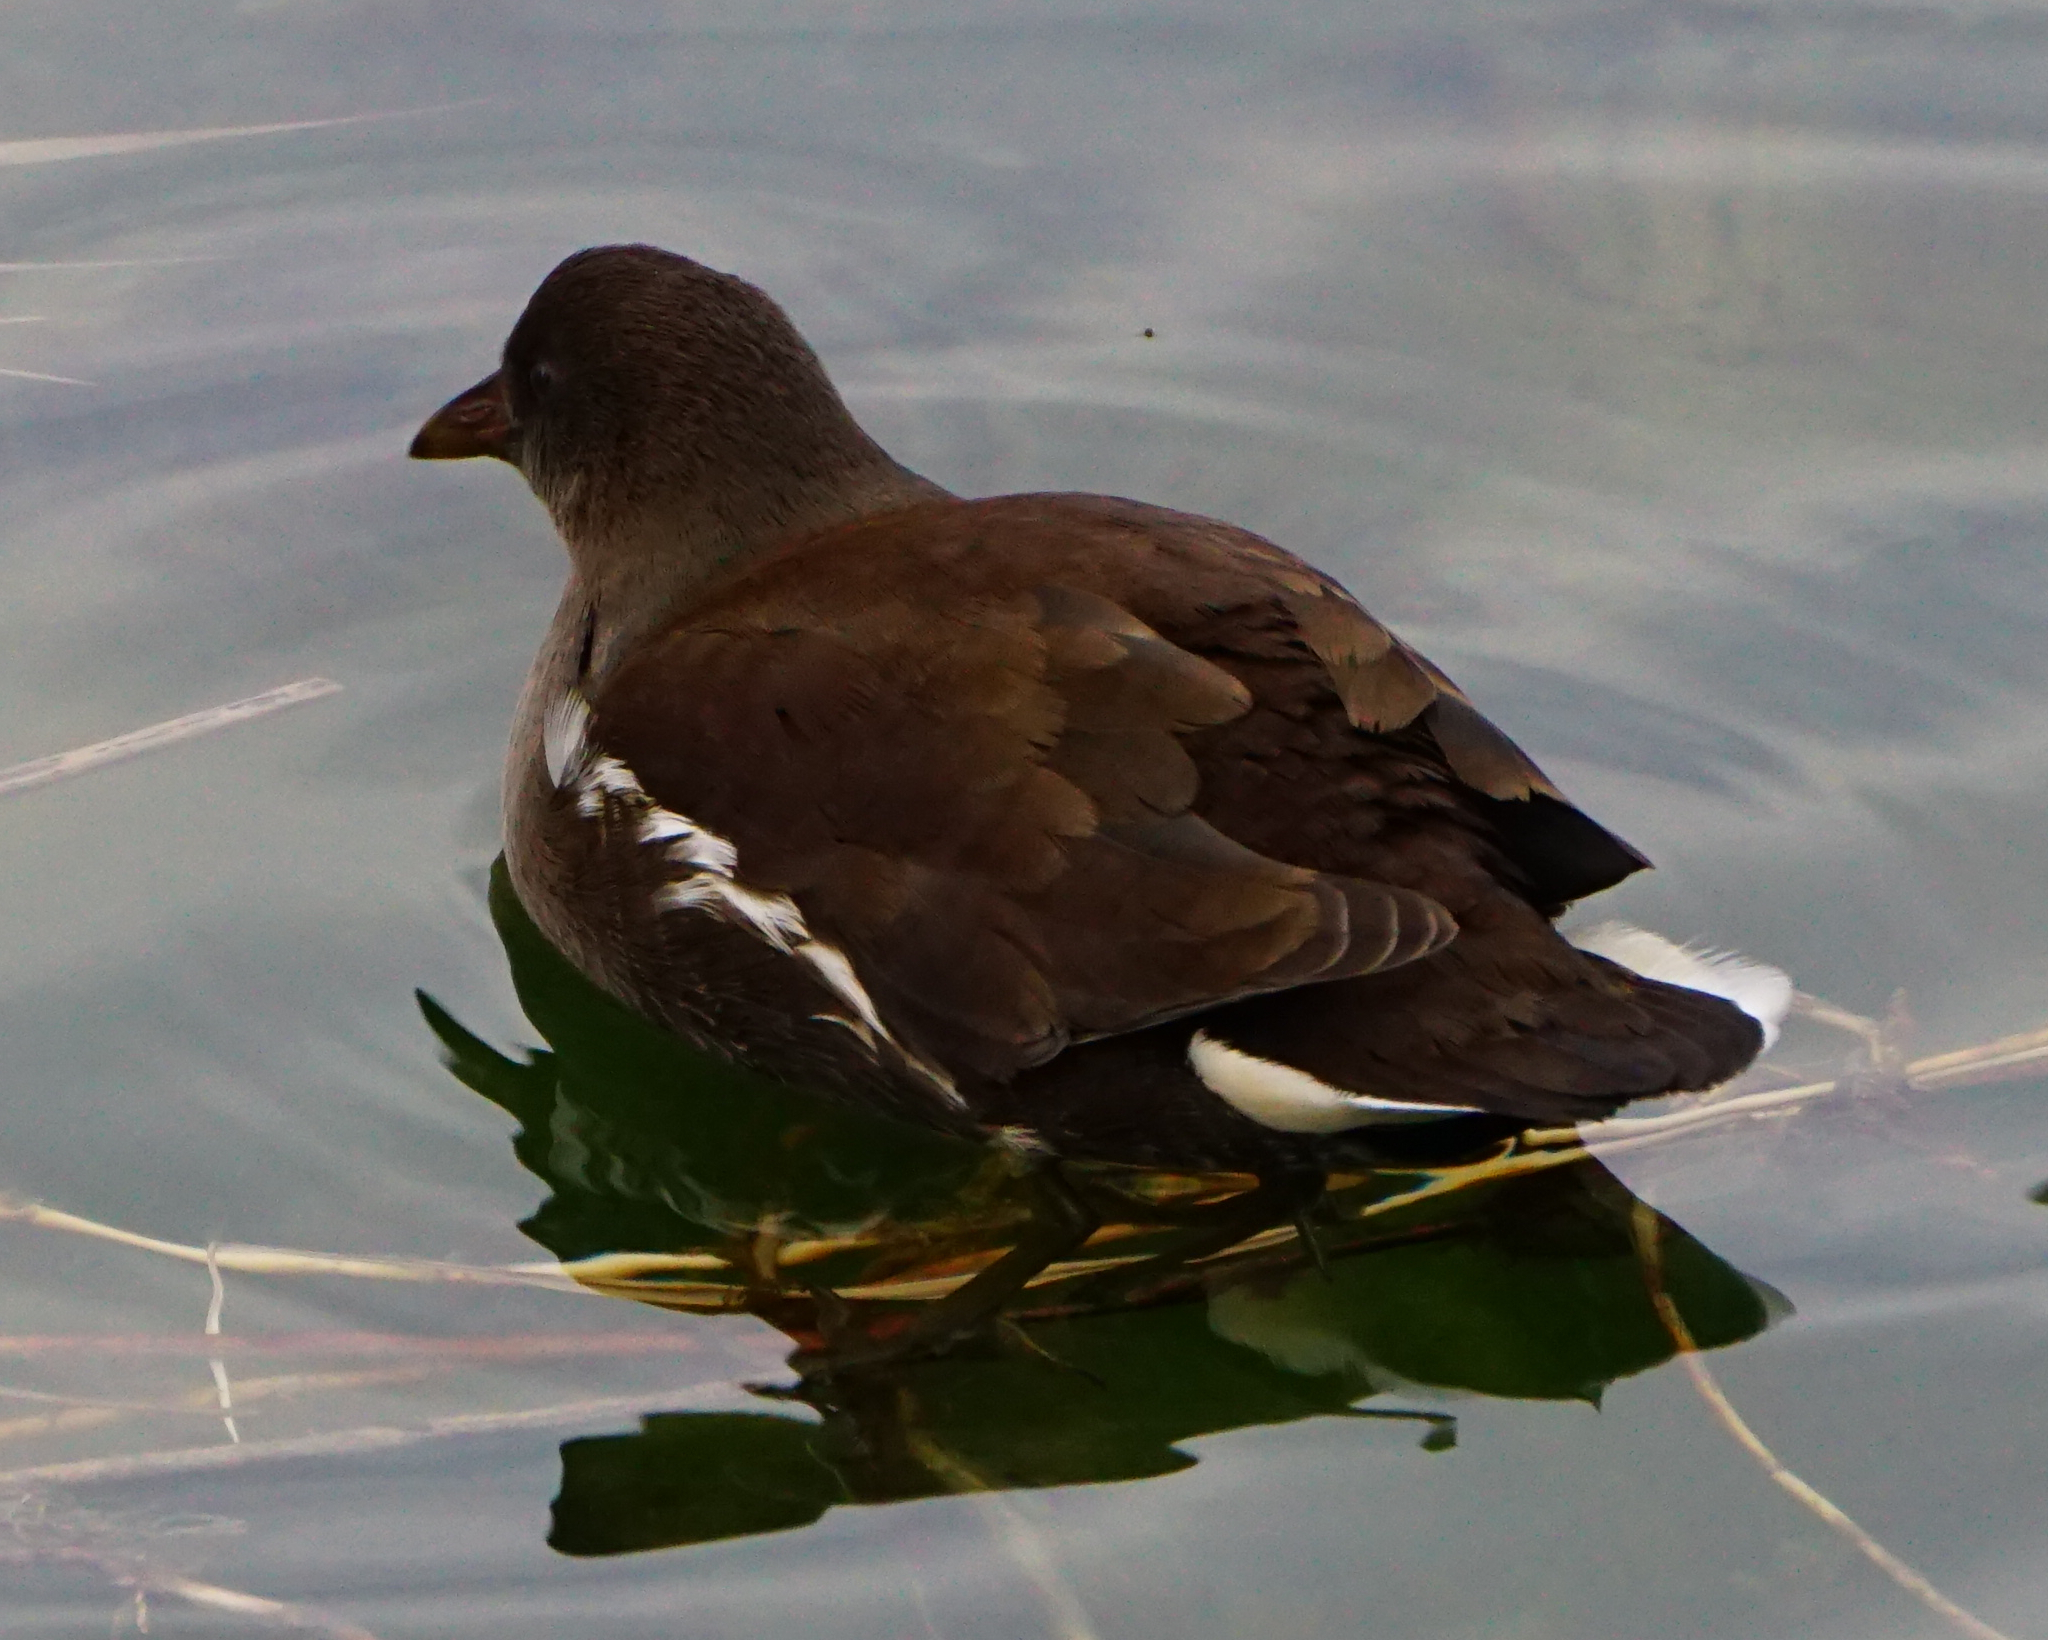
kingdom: Animalia
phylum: Chordata
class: Aves
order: Gruiformes
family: Rallidae
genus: Gallinula
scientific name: Gallinula chloropus
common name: Common moorhen
